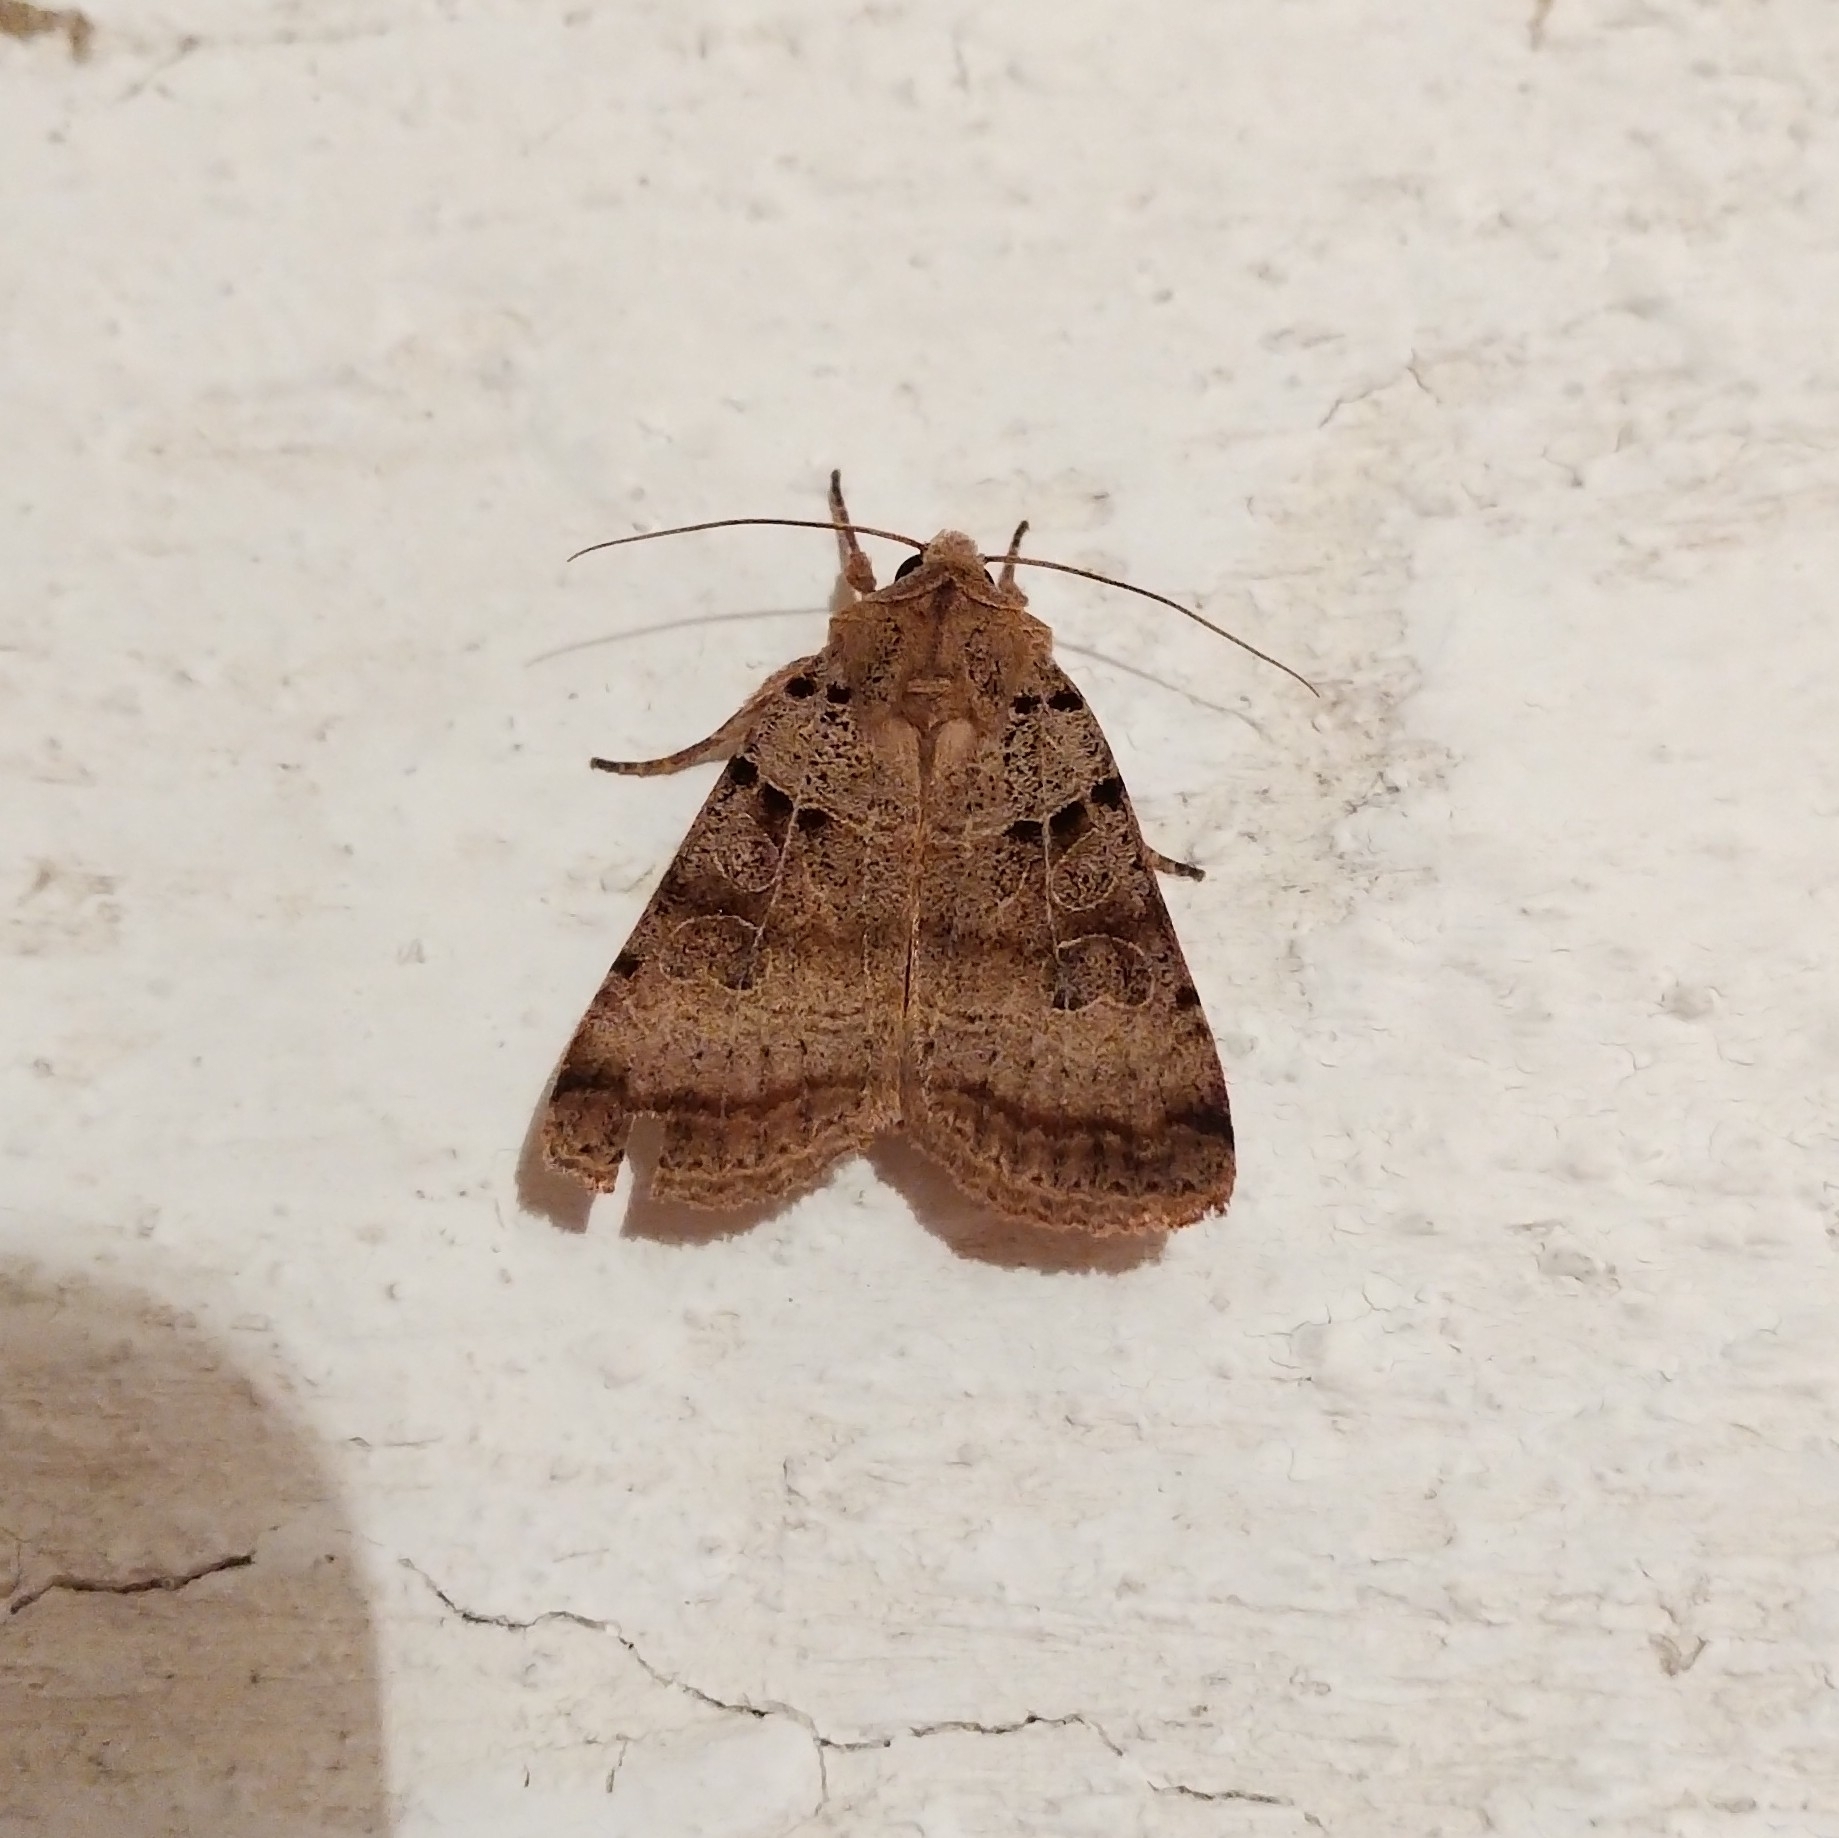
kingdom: Animalia
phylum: Arthropoda
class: Insecta
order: Lepidoptera
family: Noctuidae
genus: Eugnorisma
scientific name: Eugnorisma depuncta
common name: Plain clay
